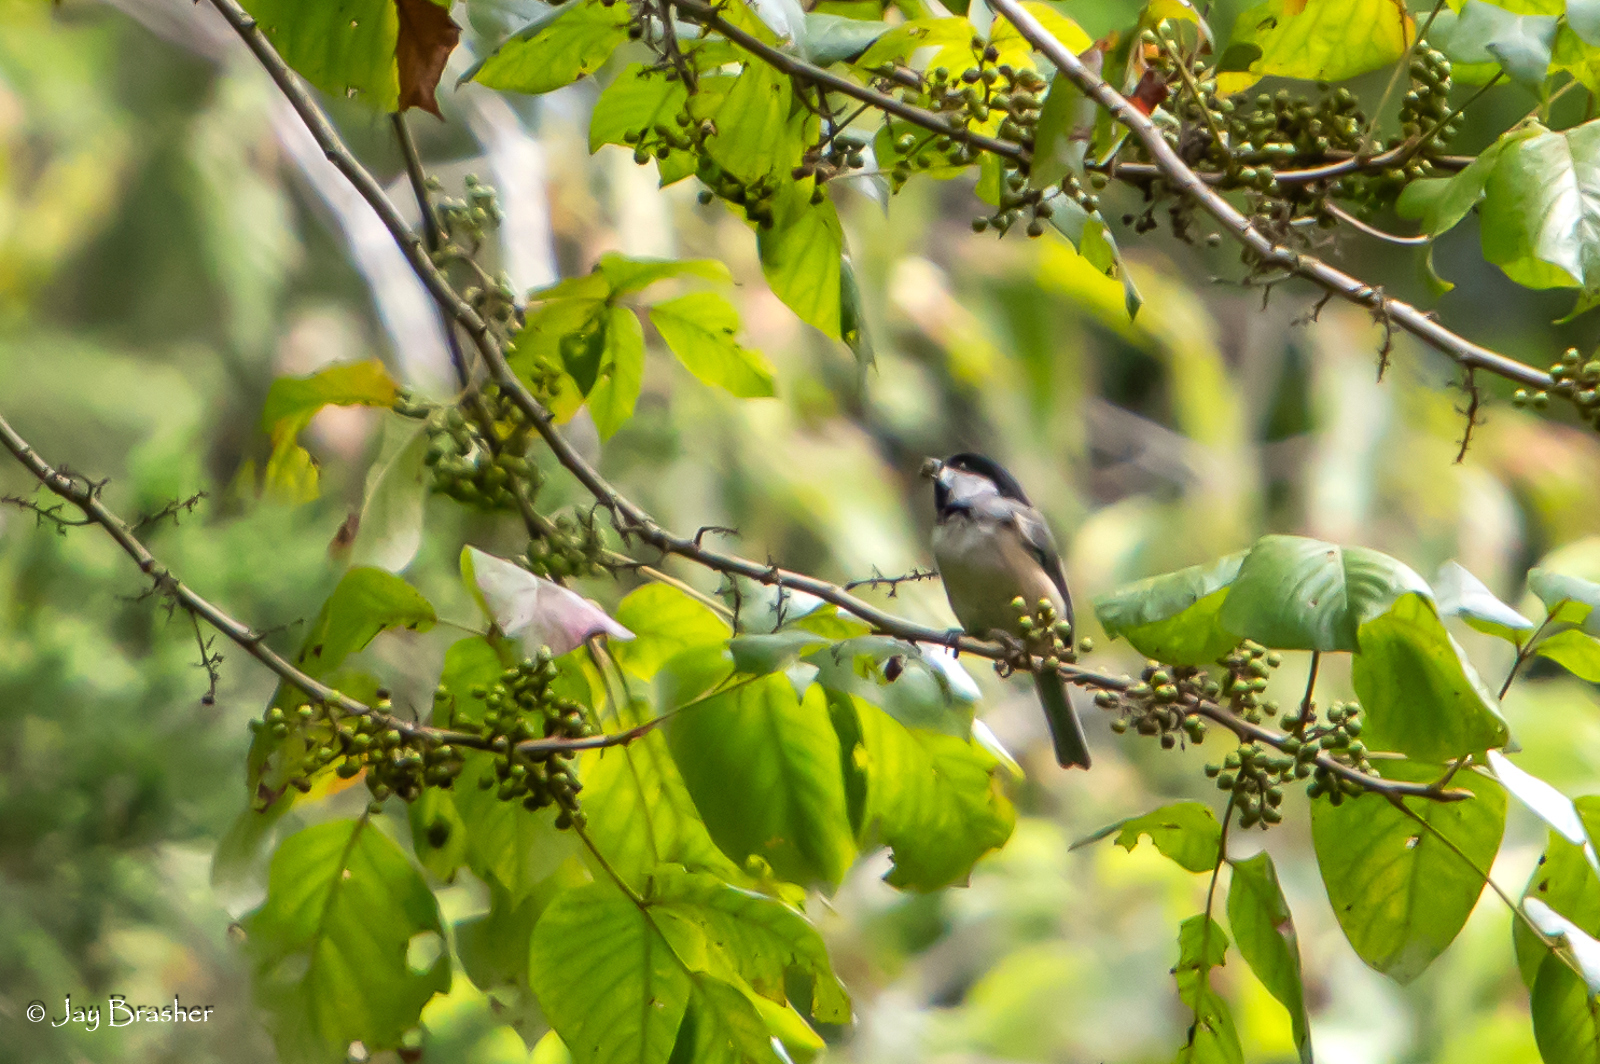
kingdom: Animalia
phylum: Chordata
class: Aves
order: Passeriformes
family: Paridae
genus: Poecile
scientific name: Poecile carolinensis
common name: Carolina chickadee
